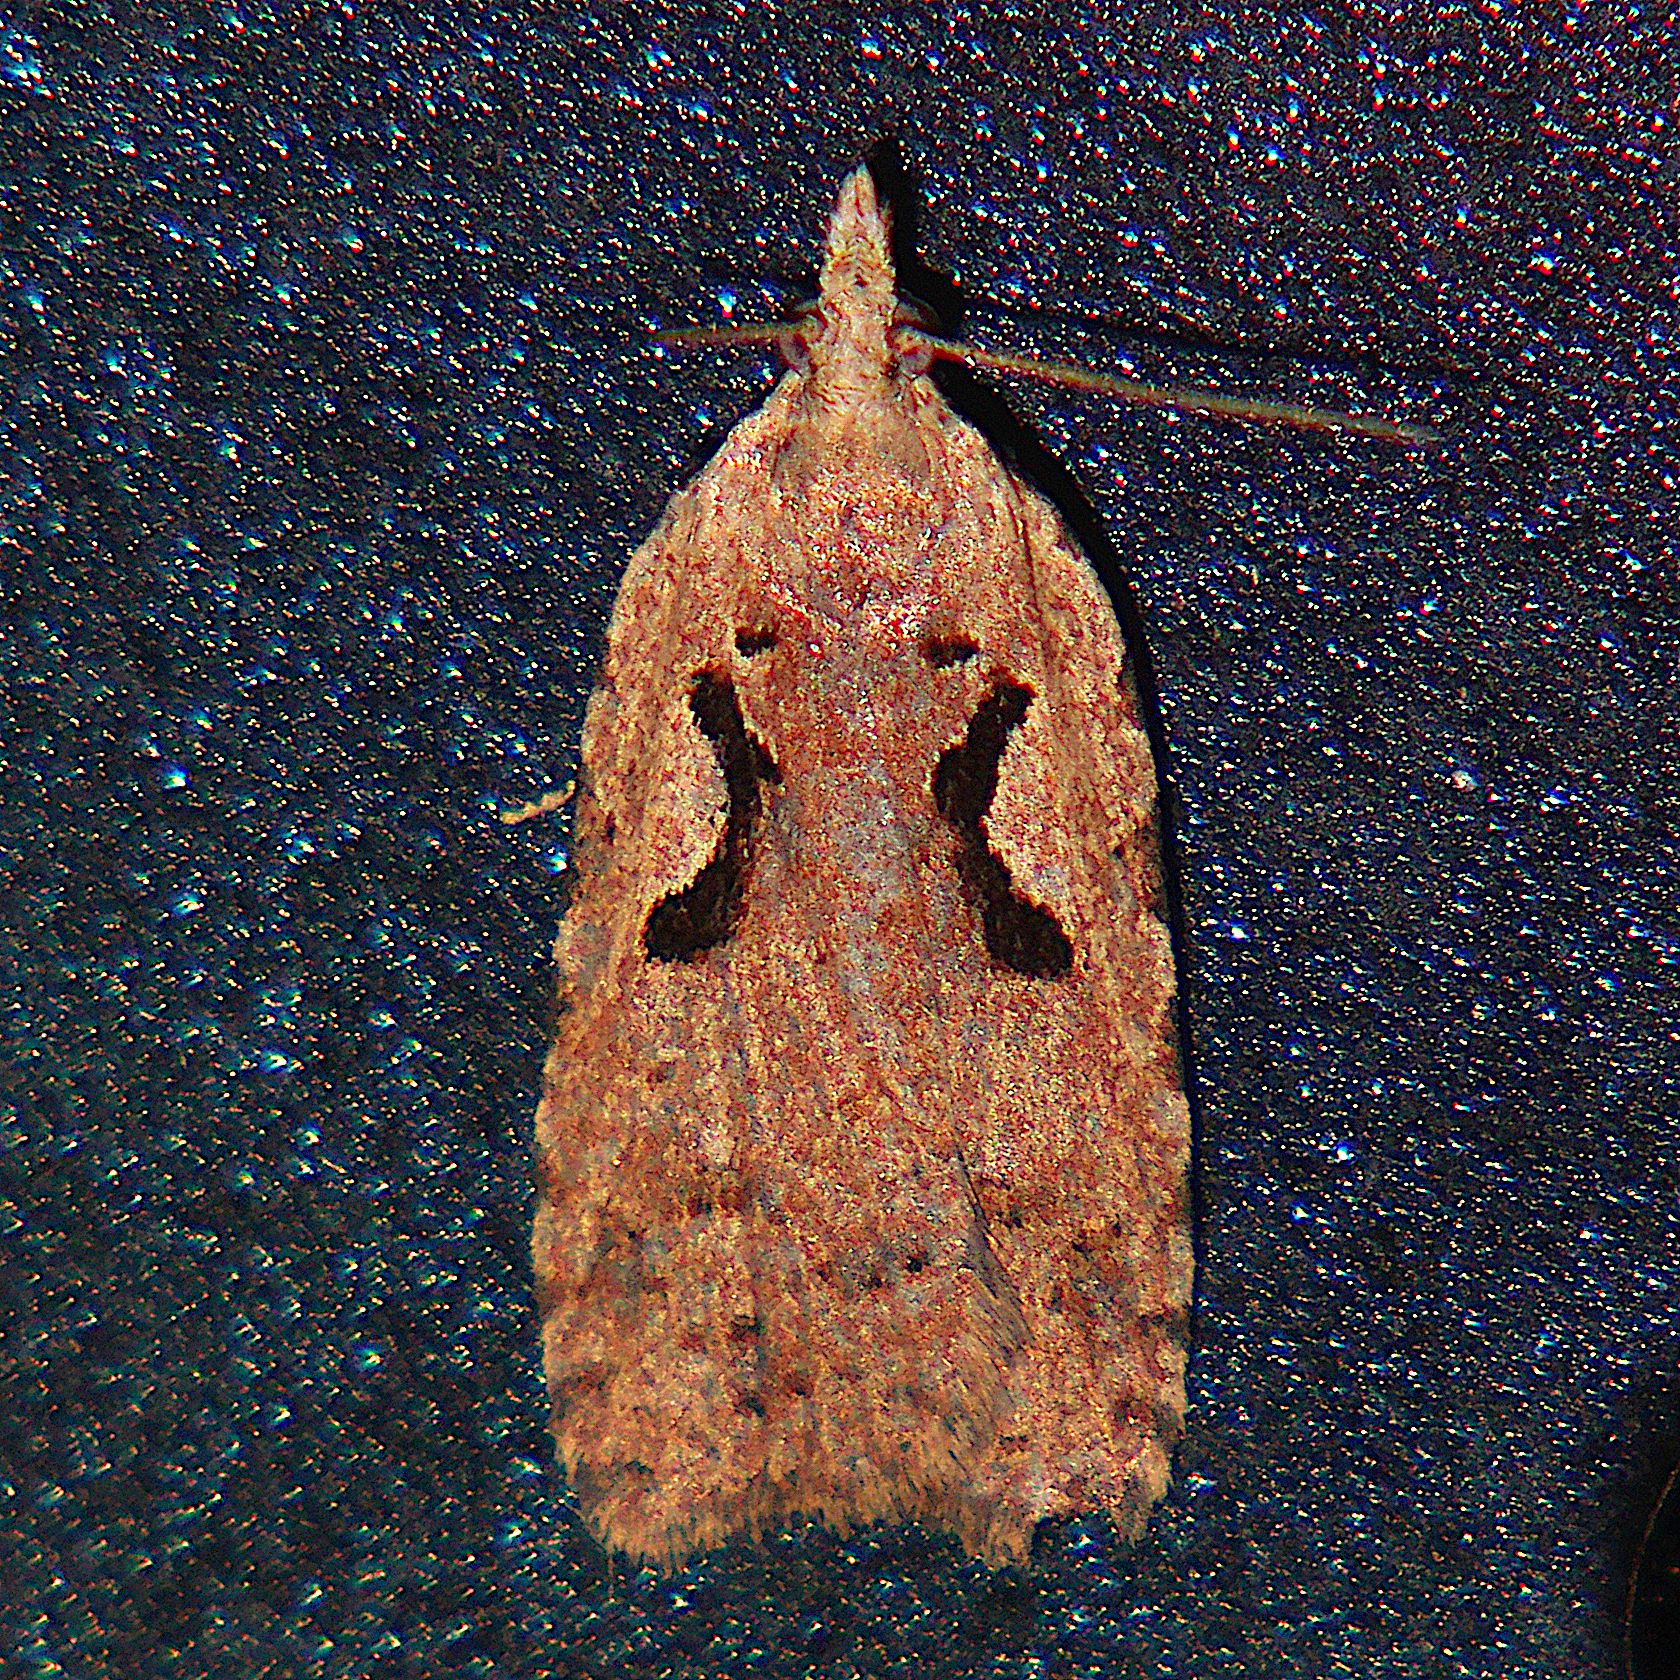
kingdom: Animalia
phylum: Arthropoda
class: Insecta
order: Lepidoptera
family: Tortricidae
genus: Cnephasia
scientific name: Cnephasia jactatana
